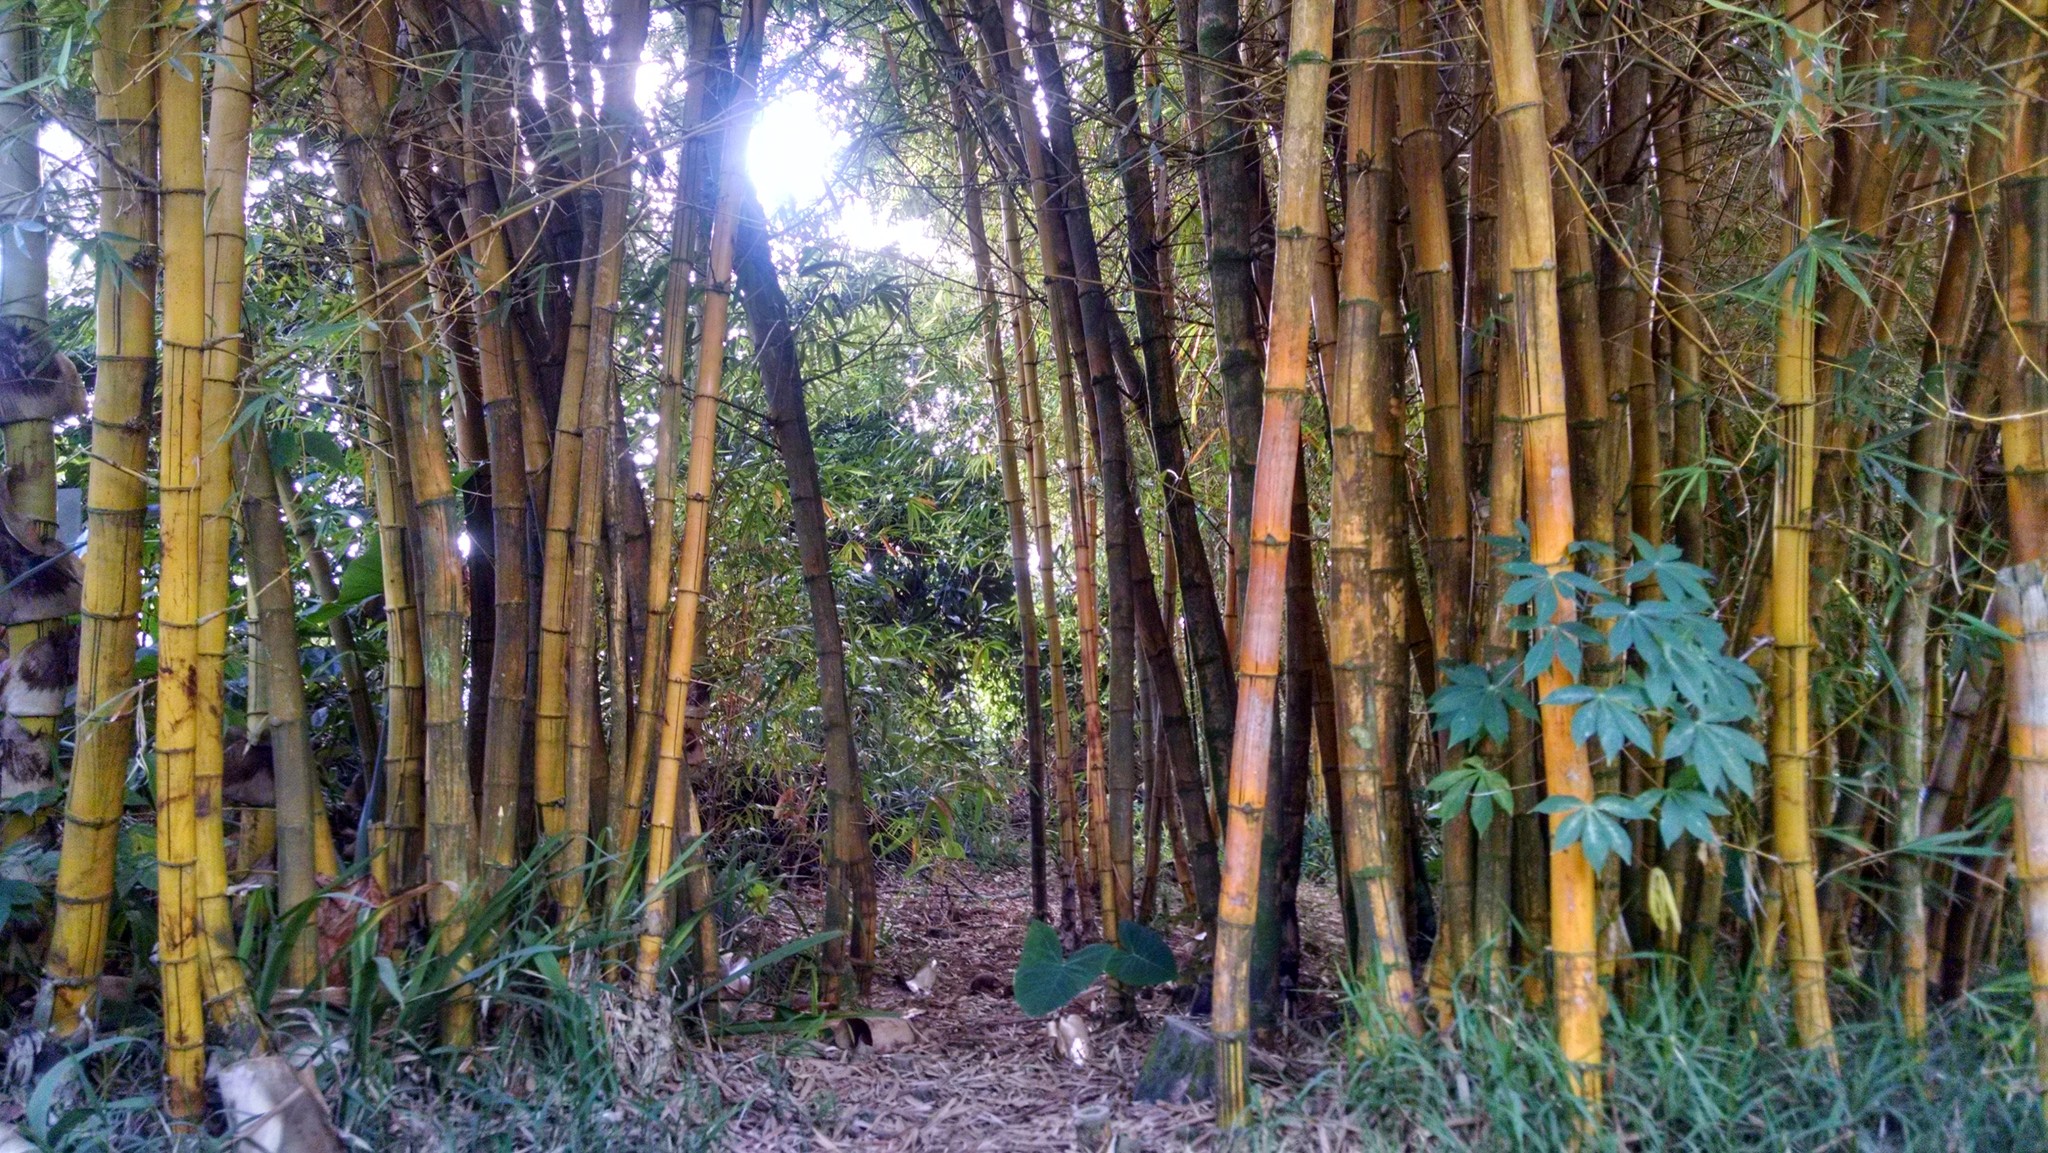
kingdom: Plantae
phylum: Tracheophyta
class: Liliopsida
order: Poales
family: Poaceae
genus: Bambusa
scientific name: Bambusa vulgaris
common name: Common bamboo
